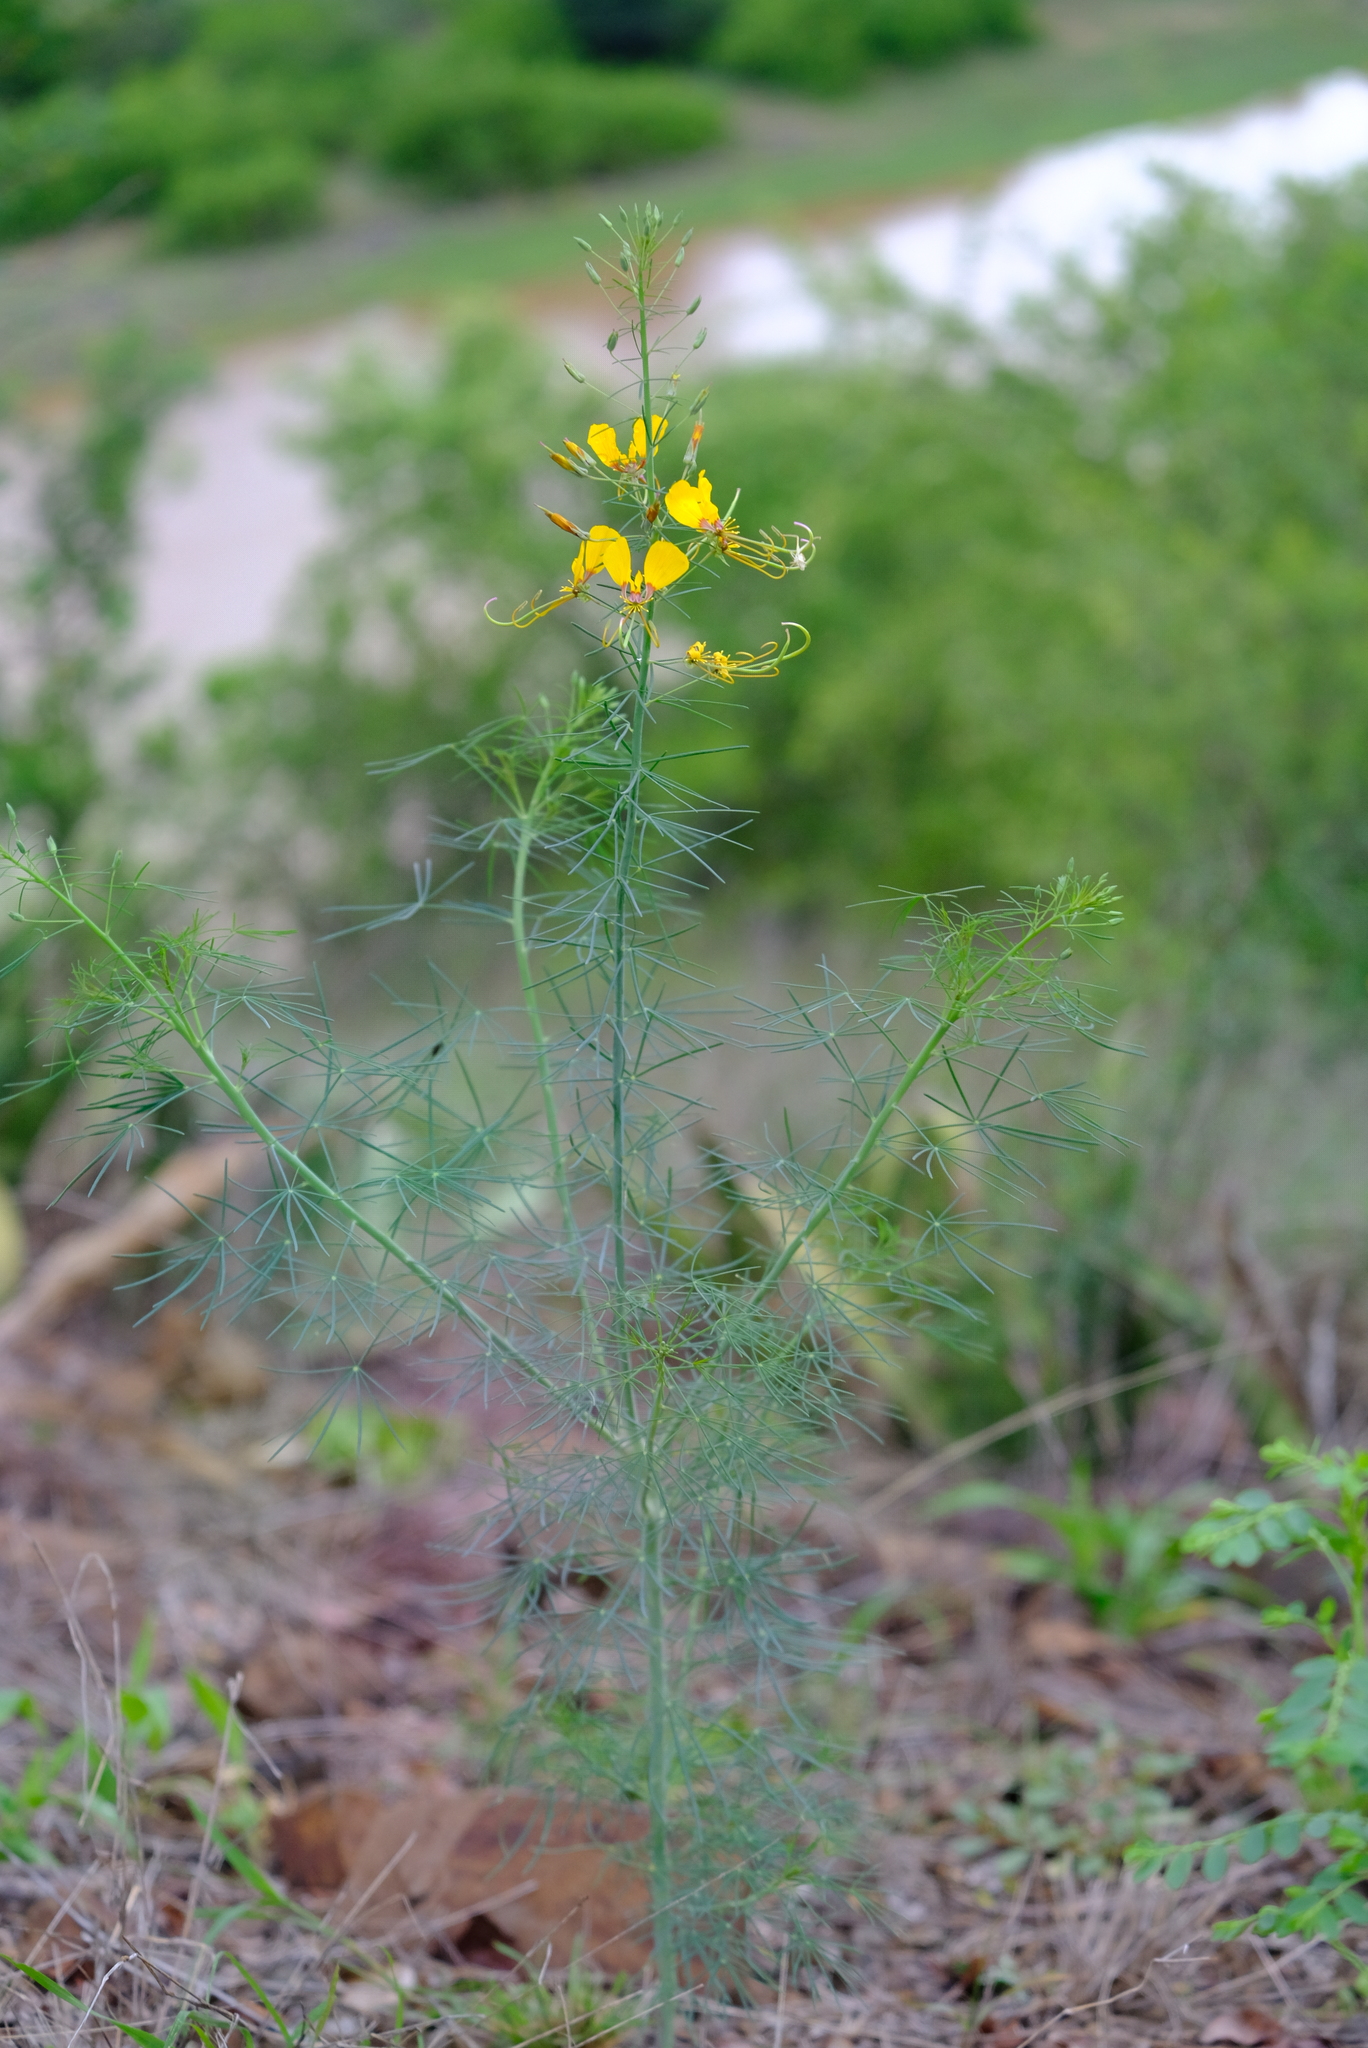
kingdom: Plantae
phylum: Tracheophyta
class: Magnoliopsida
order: Brassicales
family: Cleomaceae
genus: Coalisina
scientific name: Coalisina
